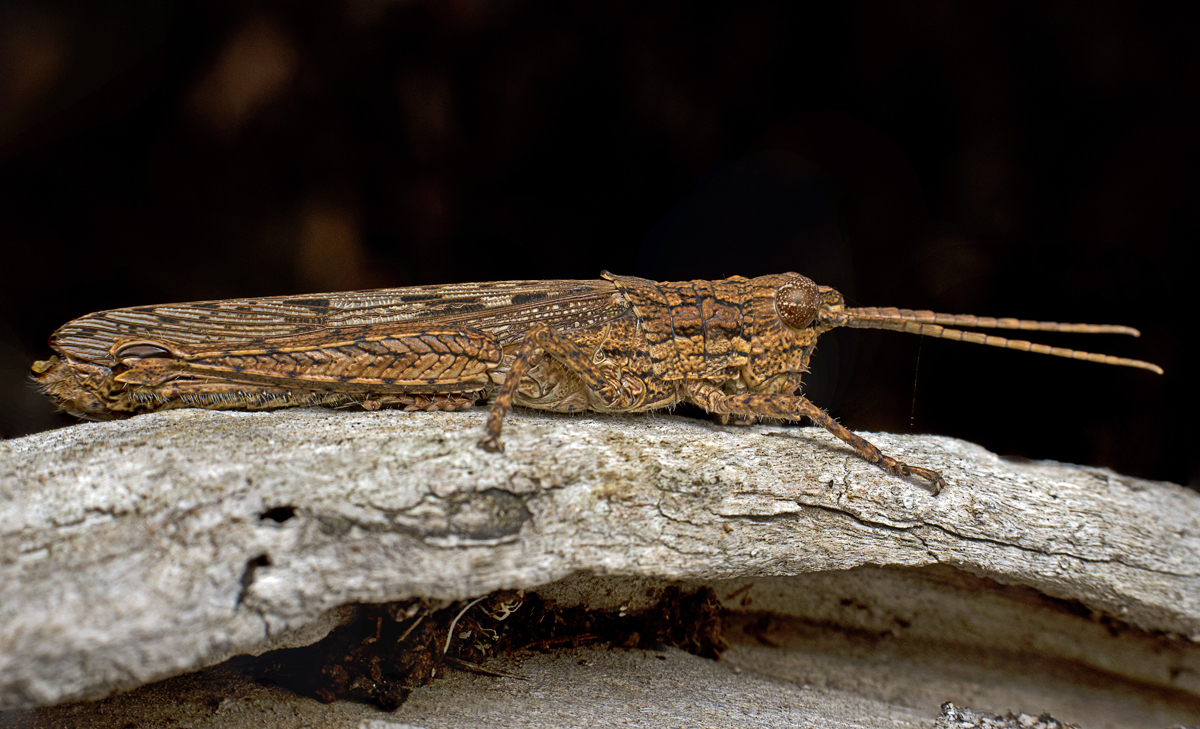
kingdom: Animalia
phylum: Arthropoda
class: Insecta
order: Orthoptera
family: Acrididae
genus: Adreppus
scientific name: Adreppus fallax
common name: Common adreppus
